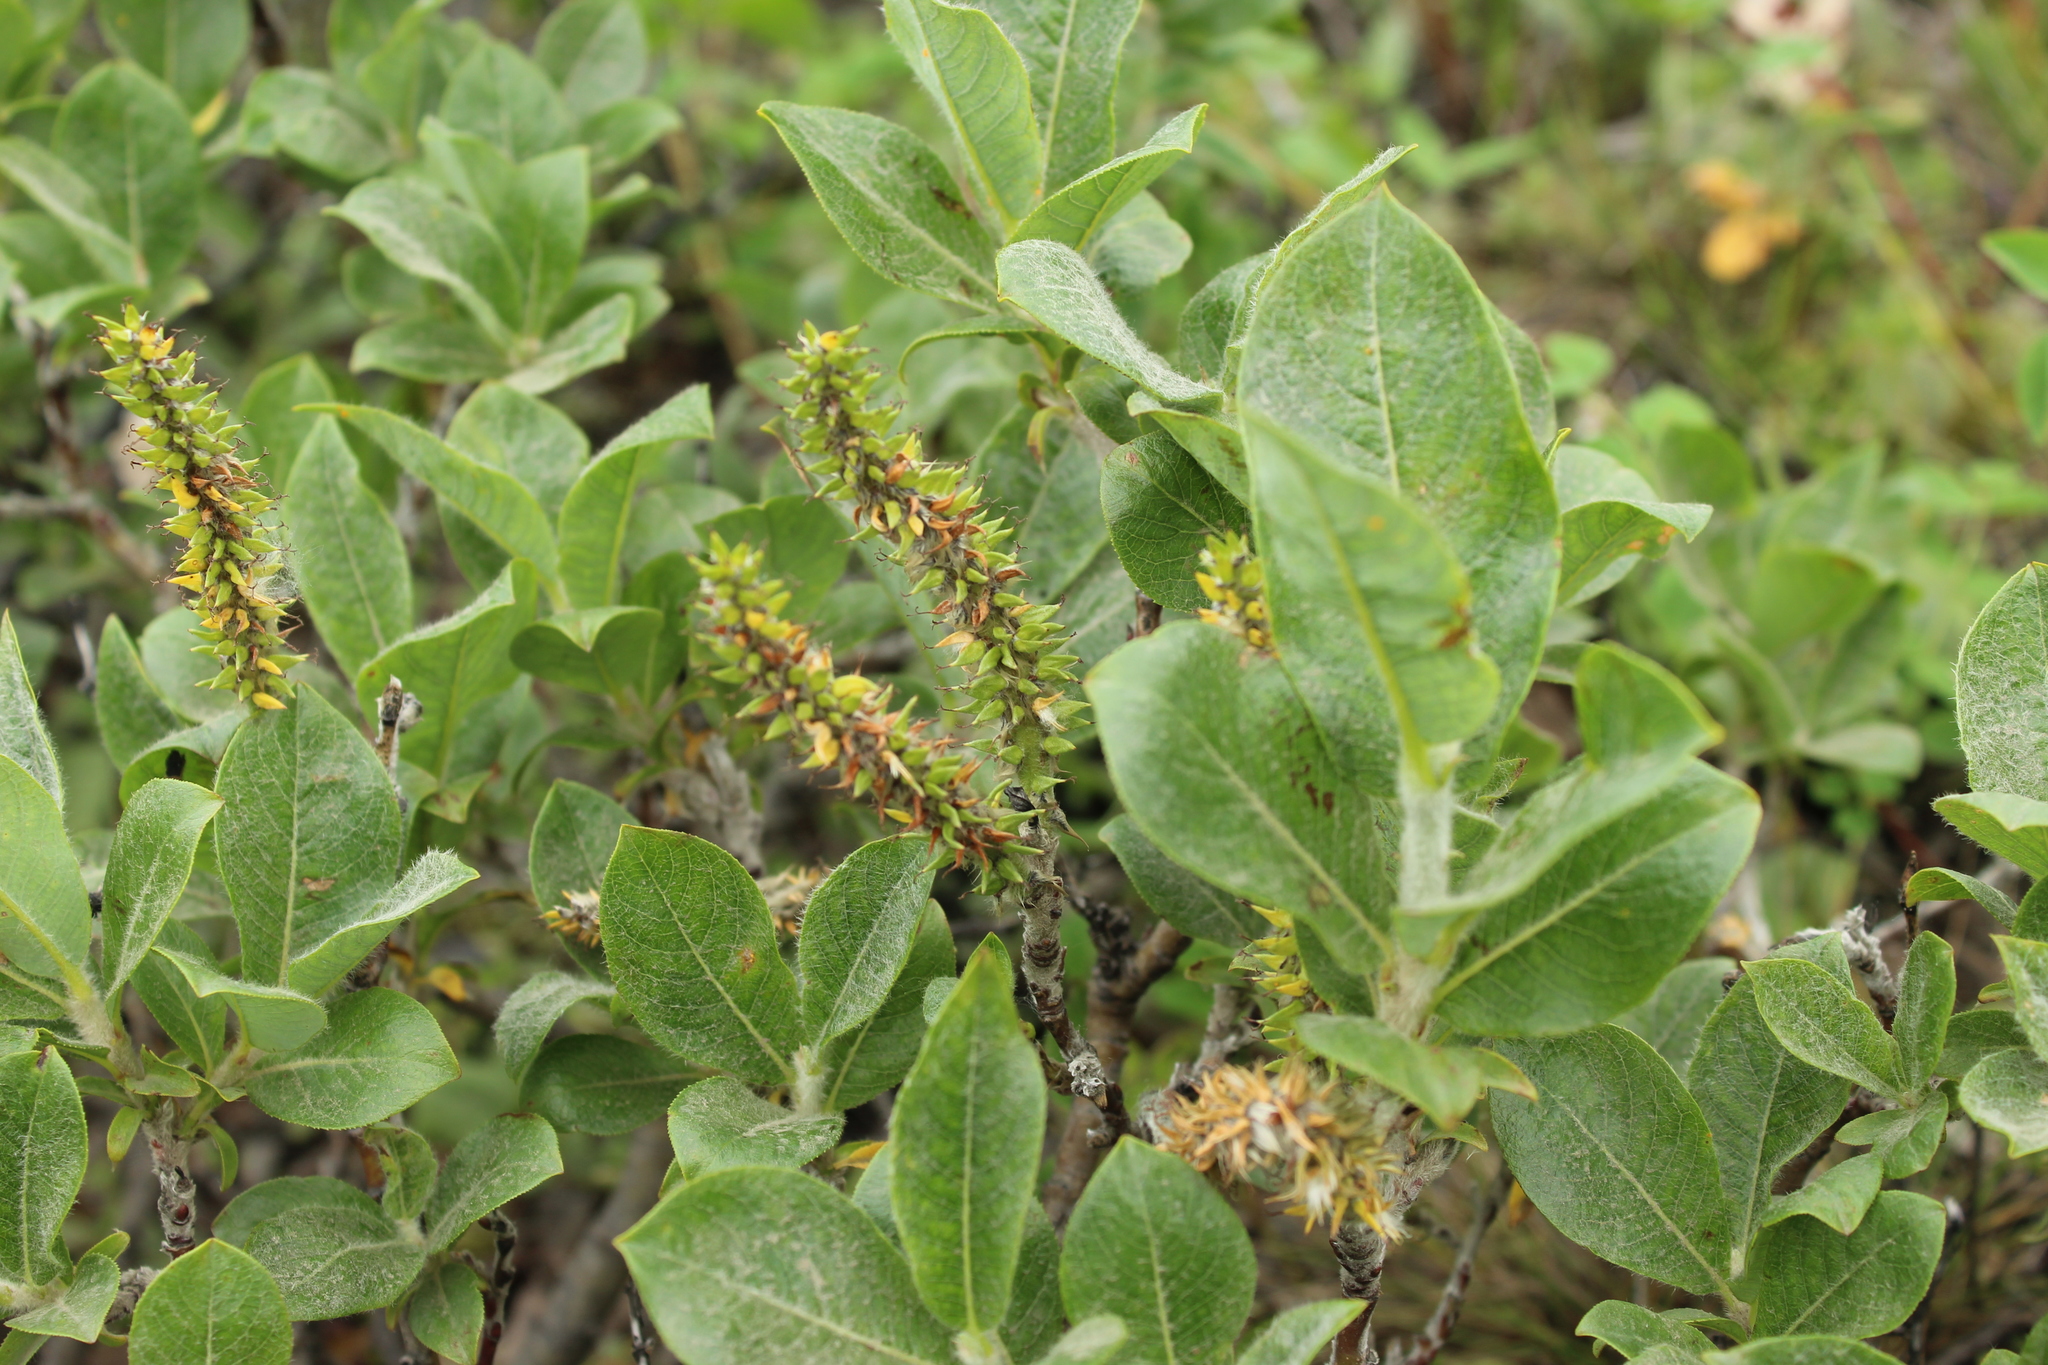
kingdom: Plantae
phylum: Tracheophyta
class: Magnoliopsida
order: Malpighiales
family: Salicaceae
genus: Salix
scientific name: Salix lanata
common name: Woolly willow
